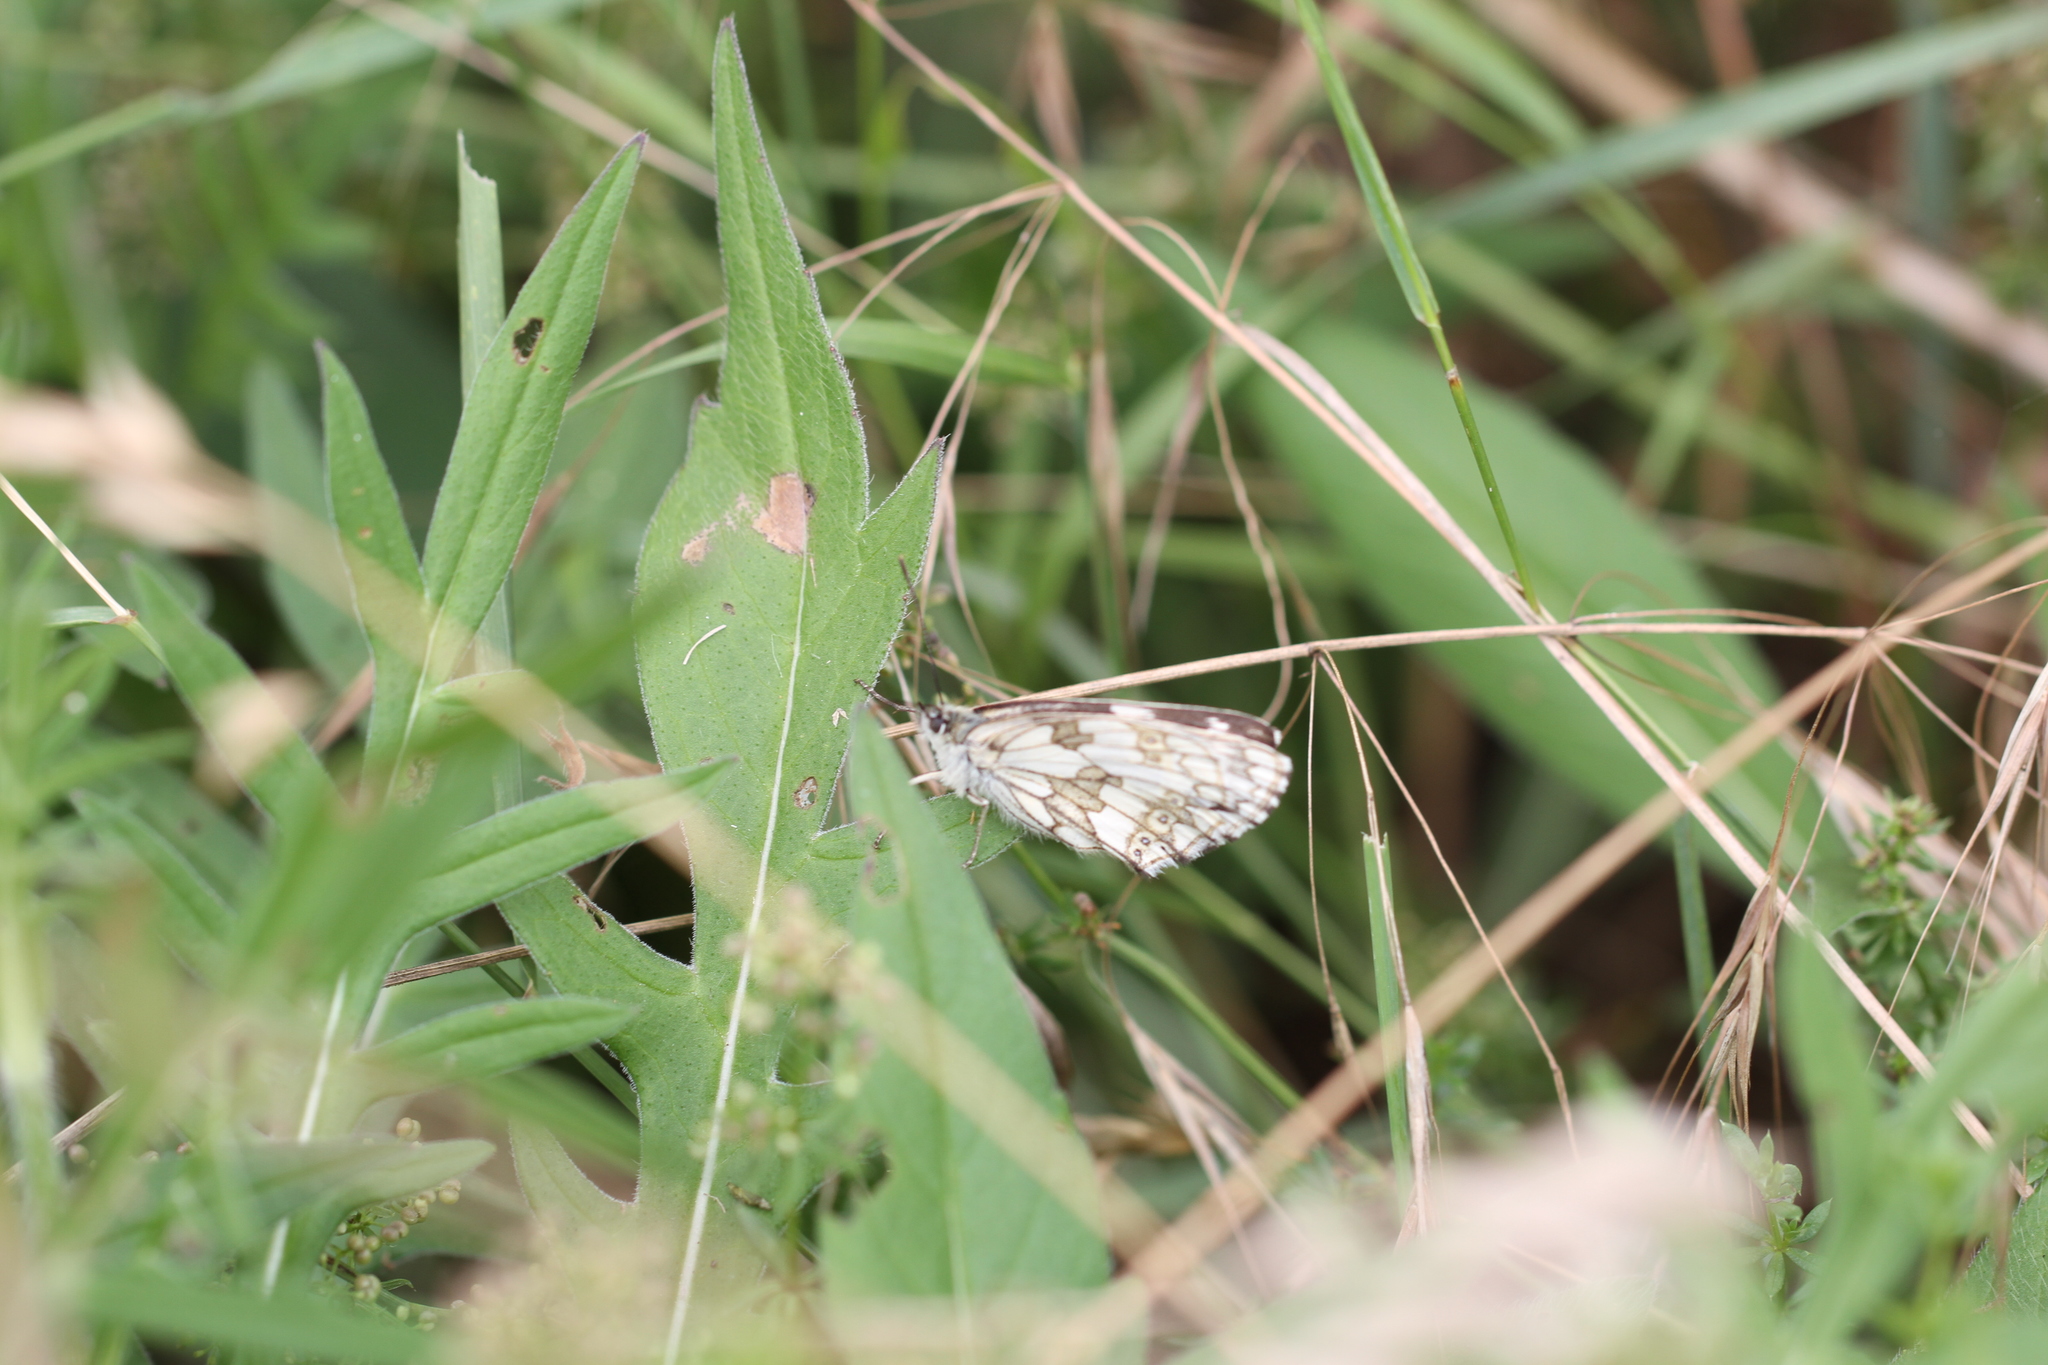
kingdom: Animalia
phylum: Arthropoda
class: Insecta
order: Lepidoptera
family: Nymphalidae
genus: Melanargia
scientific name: Melanargia galathea
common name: Marbled white
